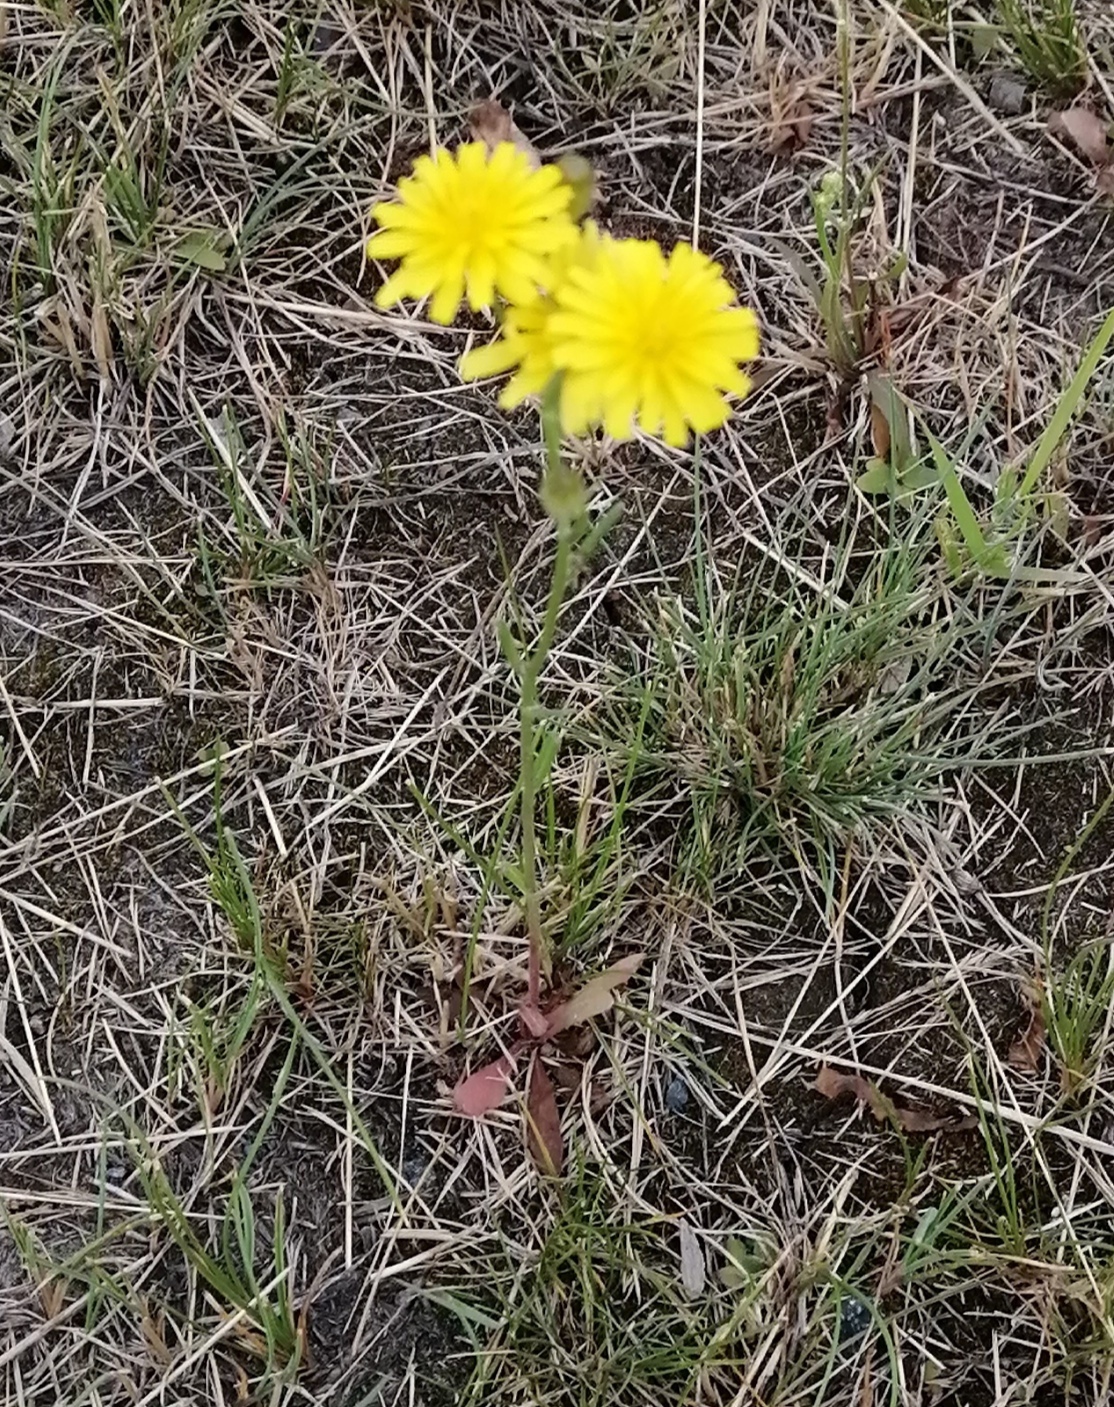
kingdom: Plantae
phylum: Tracheophyta
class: Magnoliopsida
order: Asterales
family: Asteraceae
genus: Crepis
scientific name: Crepis tectorum
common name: Narrow-leaved hawk's-beard
